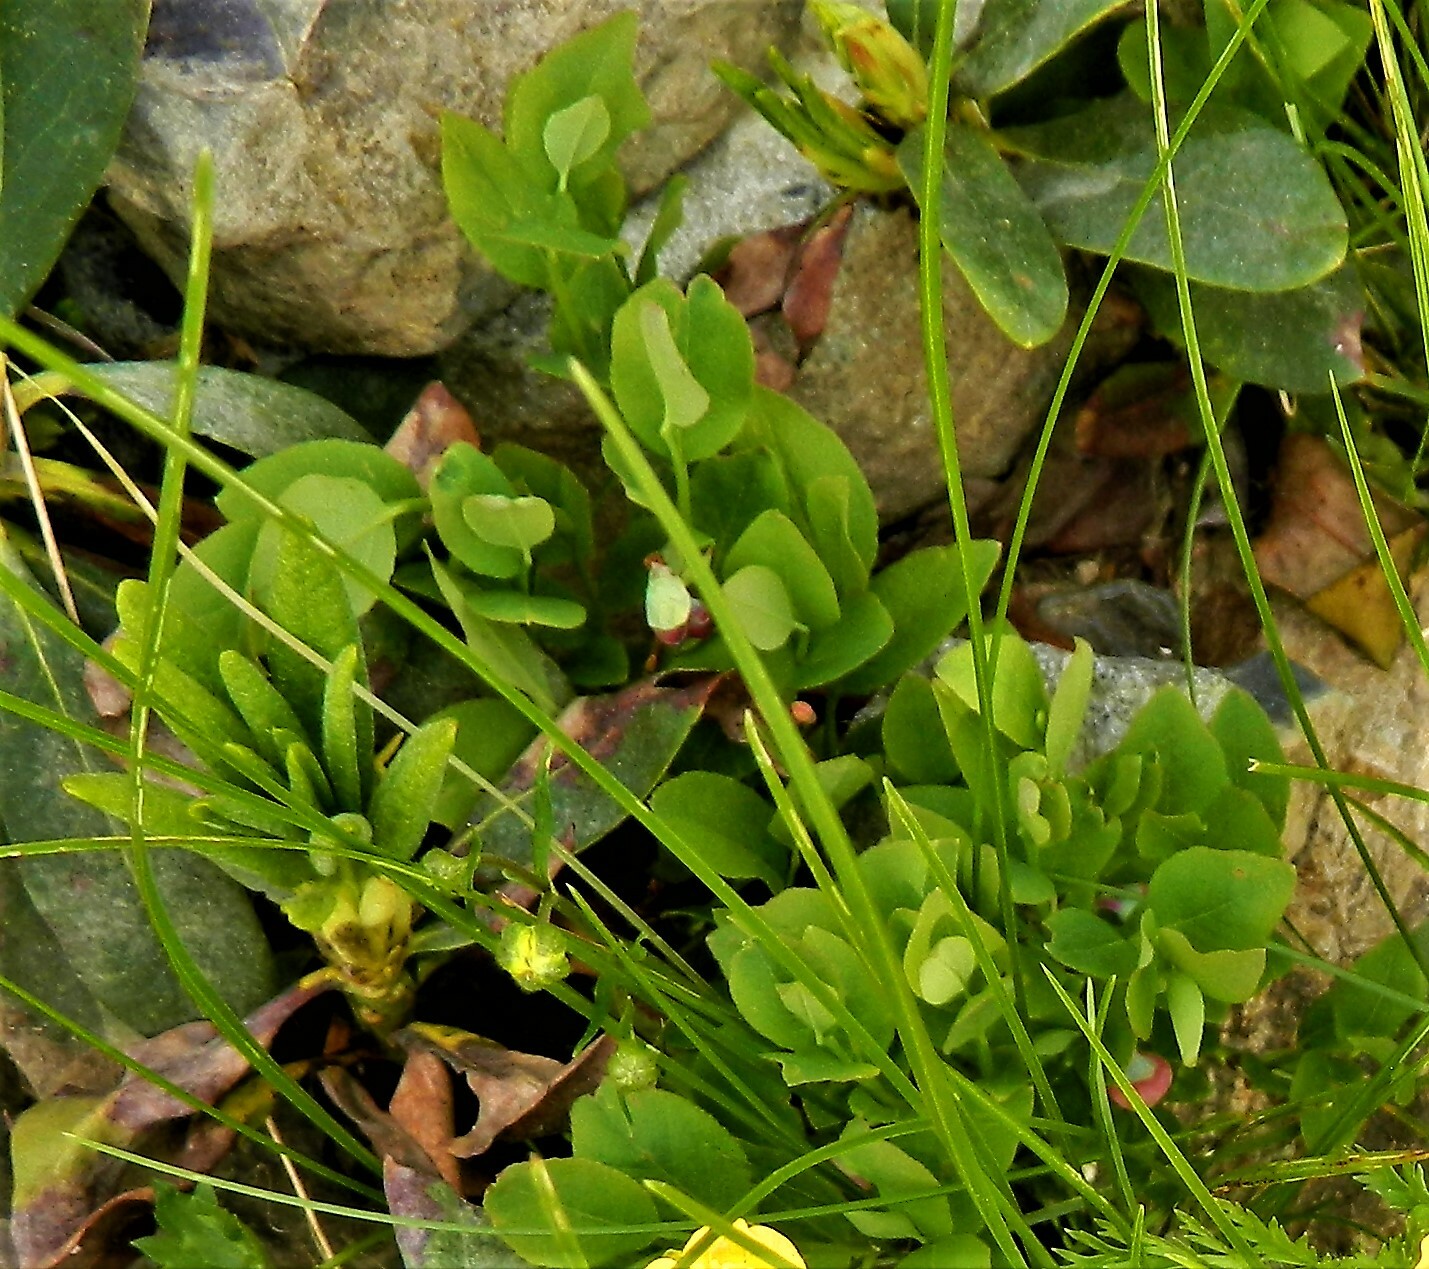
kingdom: Plantae
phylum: Tracheophyta
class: Magnoliopsida
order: Ericales
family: Ericaceae
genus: Vaccinium
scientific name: Vaccinium myrtillus
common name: Bilberry
